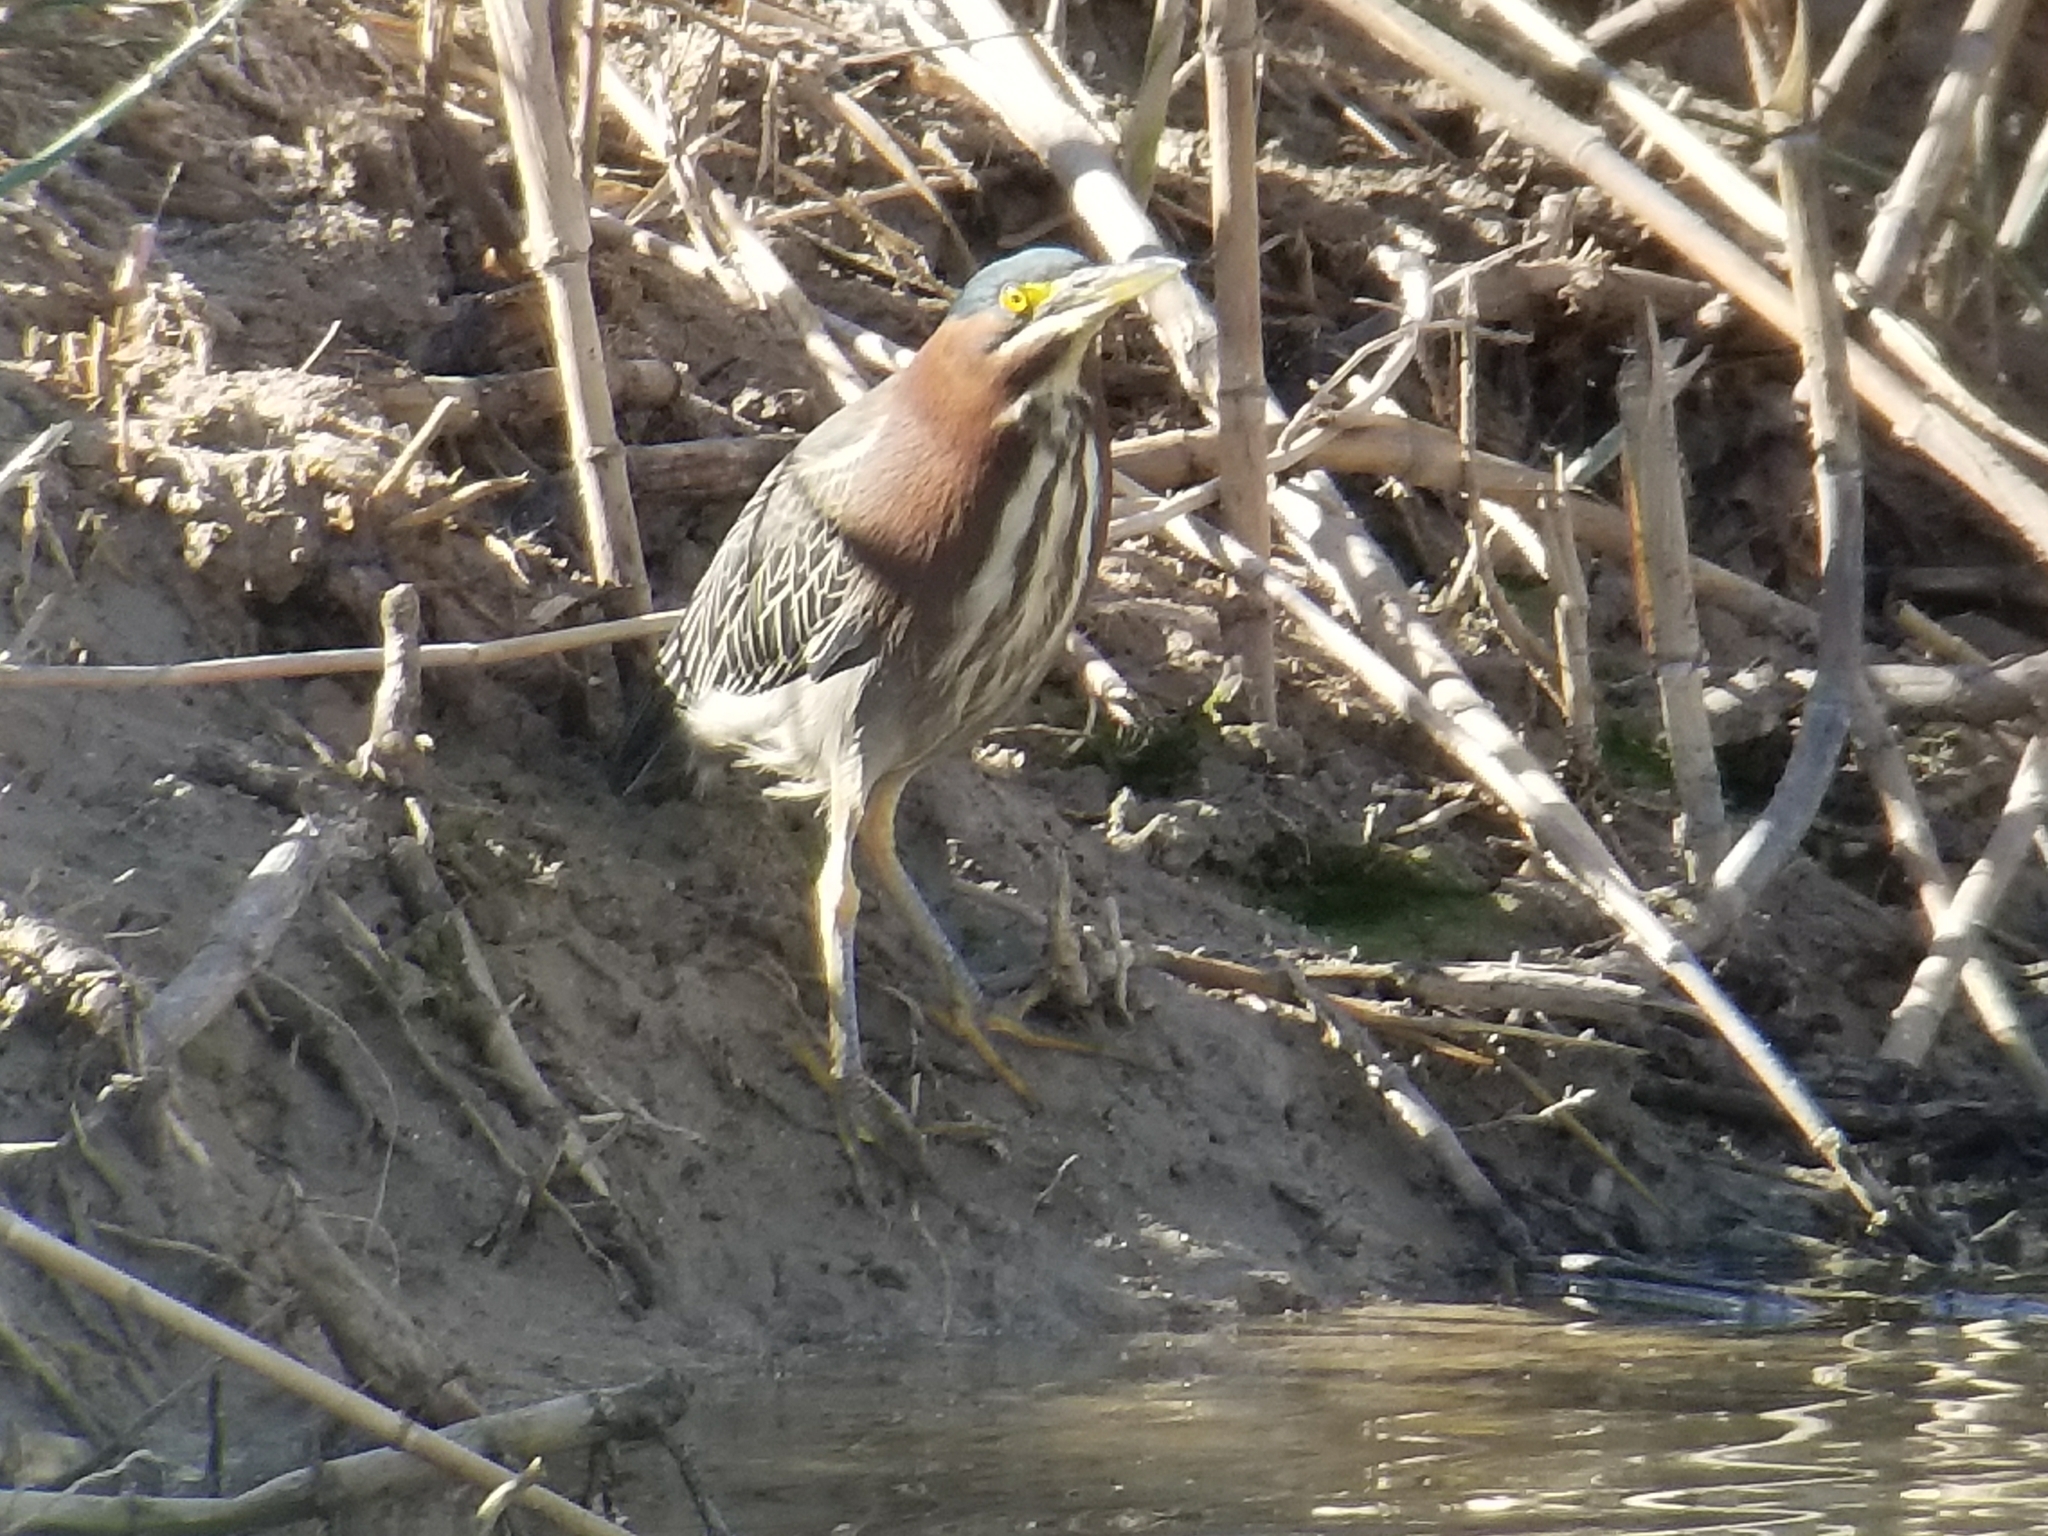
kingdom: Animalia
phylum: Chordata
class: Aves
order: Pelecaniformes
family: Ardeidae
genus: Butorides
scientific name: Butorides virescens
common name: Green heron
